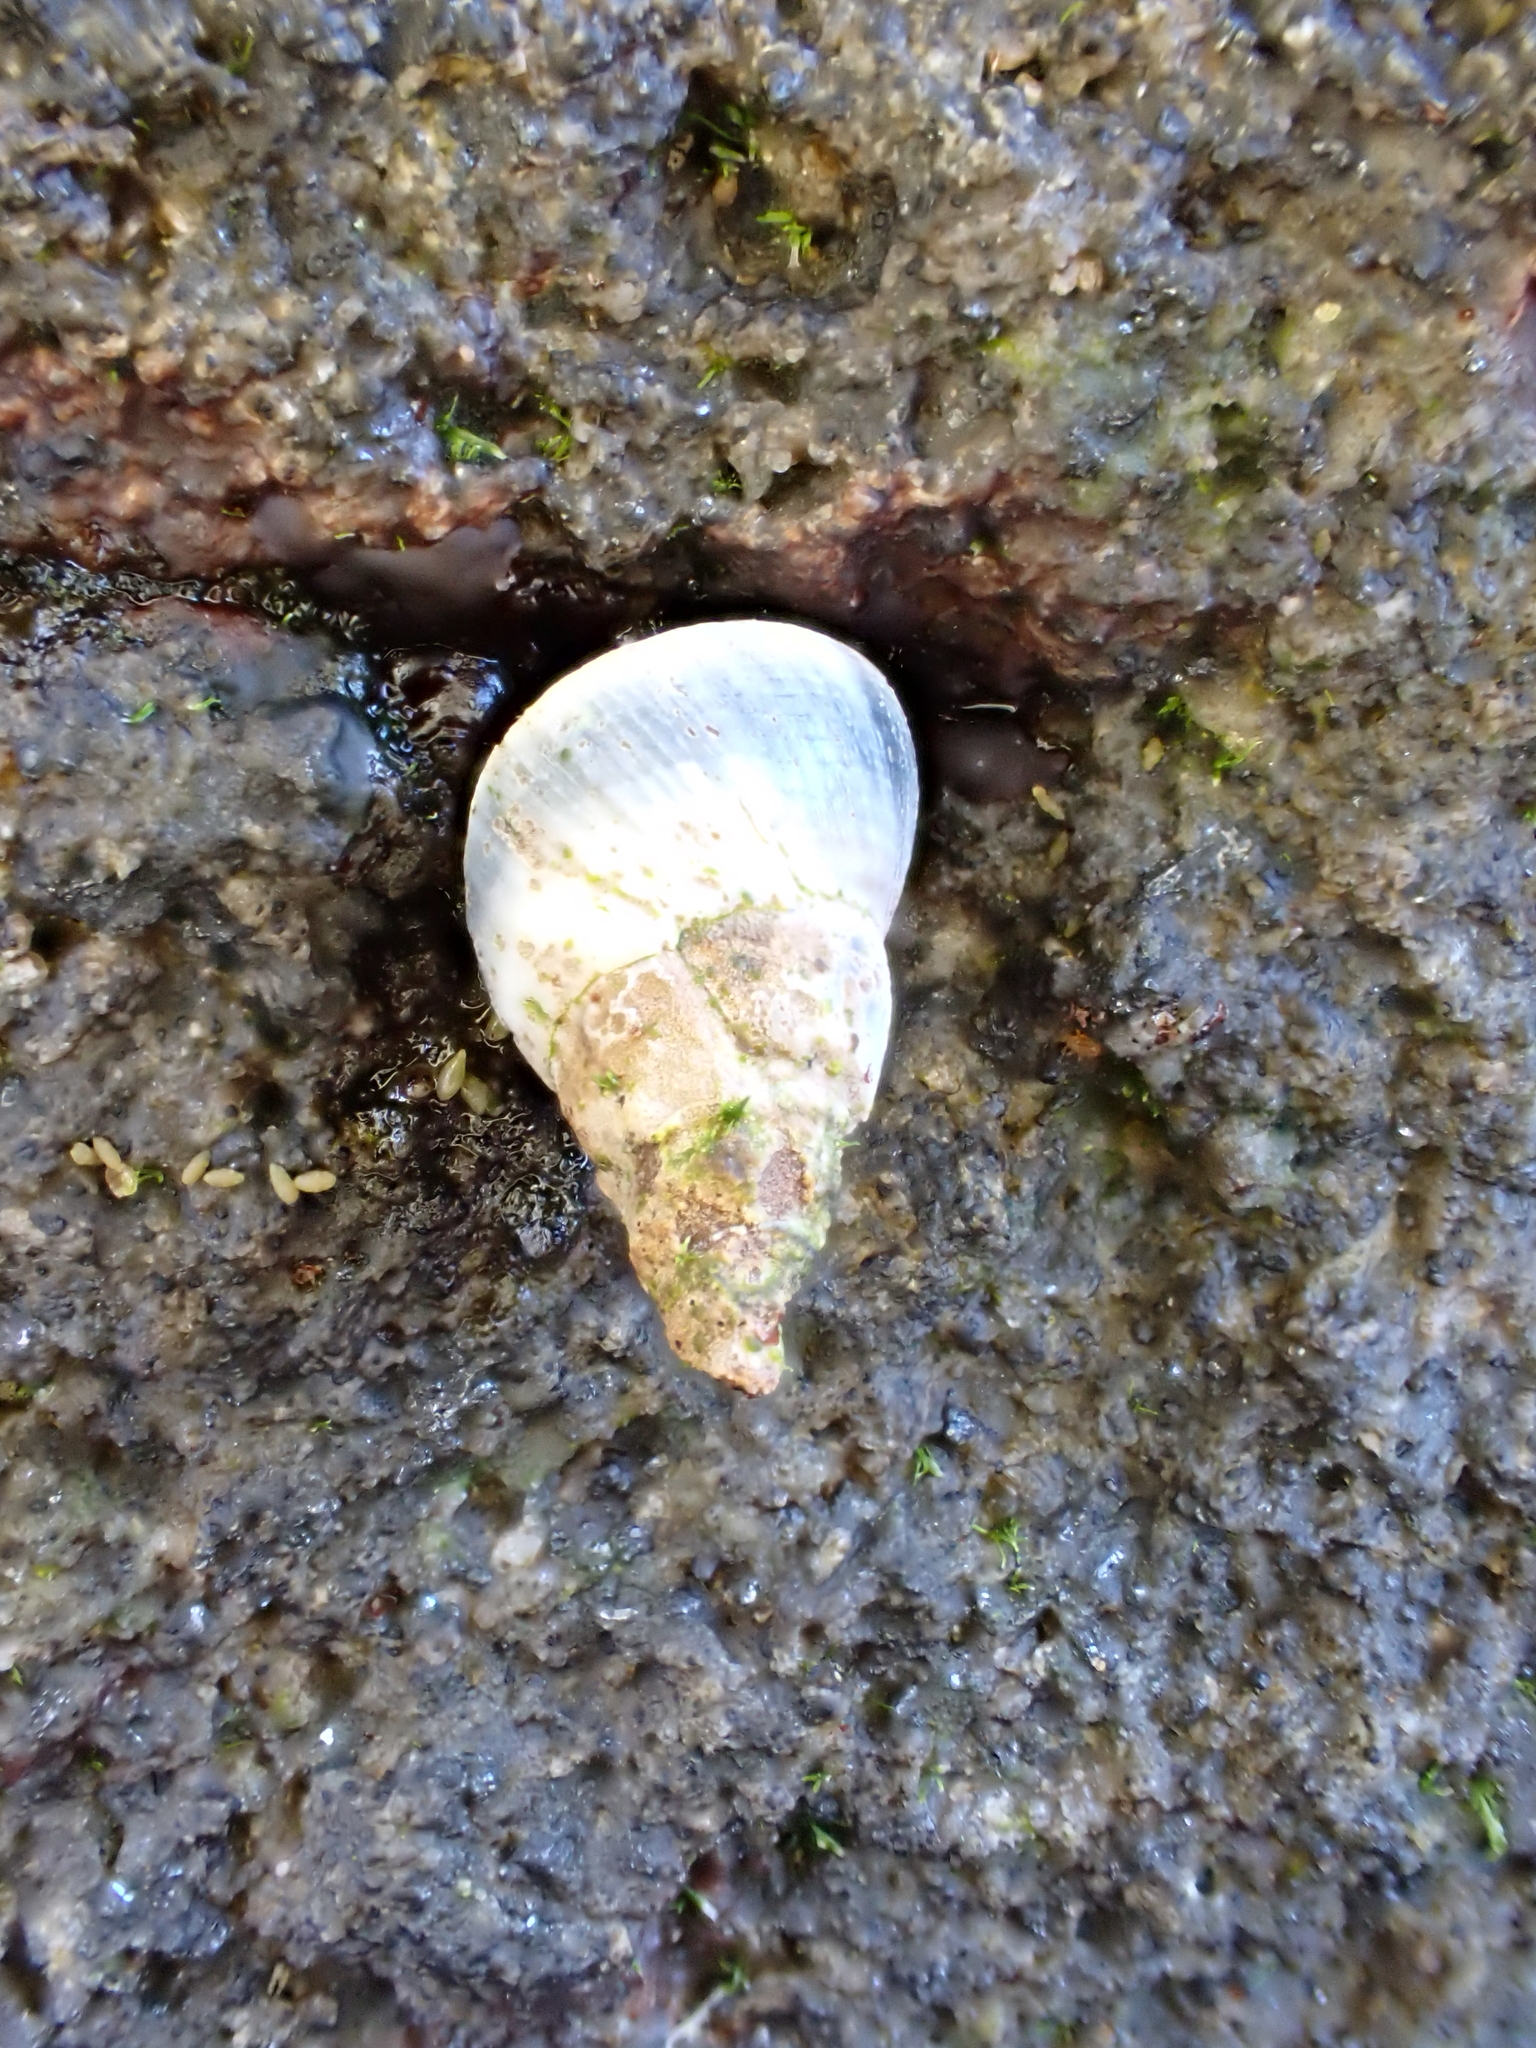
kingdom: Animalia
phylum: Mollusca
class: Gastropoda
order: Littorinimorpha
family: Littorinidae
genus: Austrolittorina
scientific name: Austrolittorina antipodum
